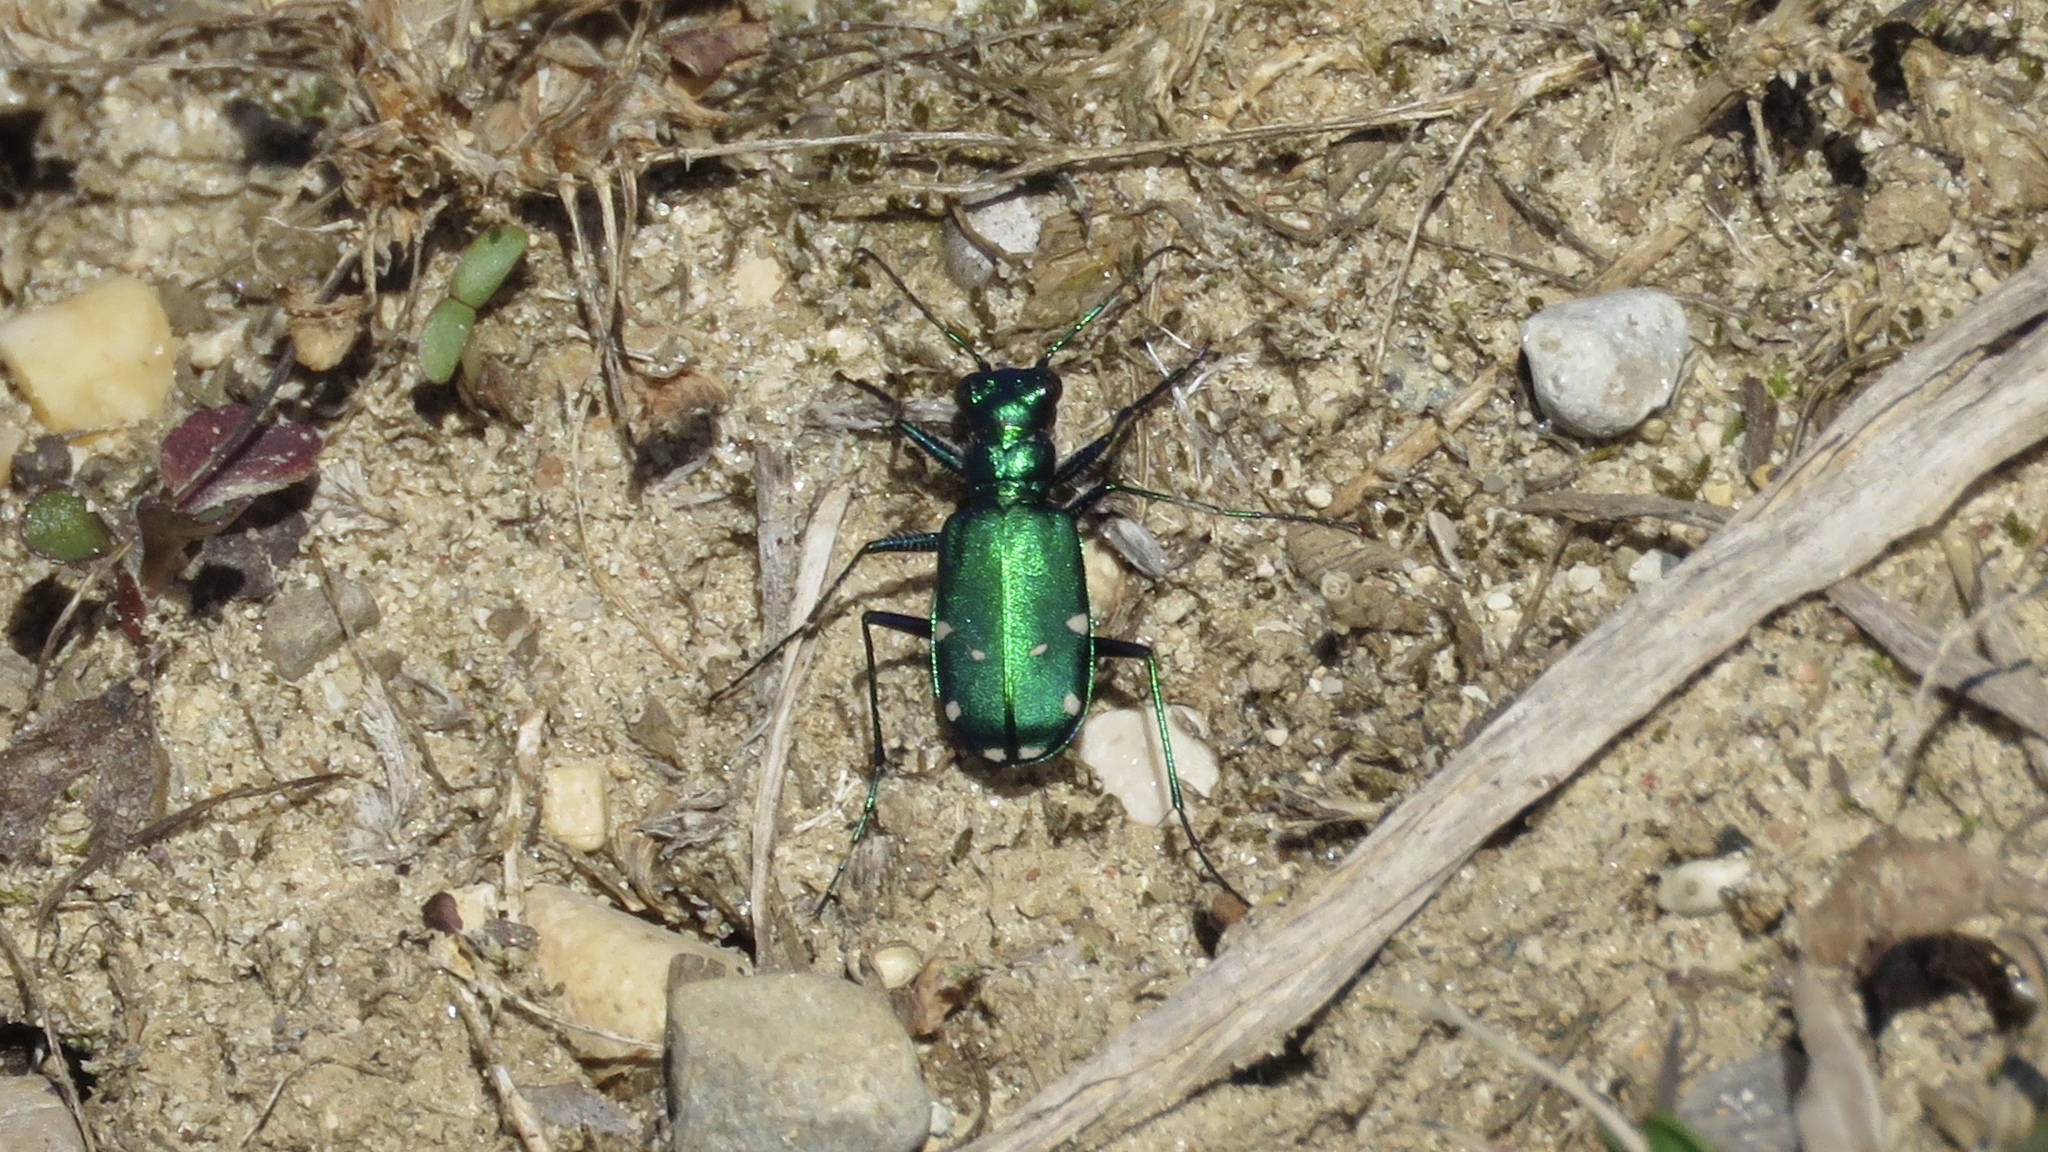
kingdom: Animalia
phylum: Arthropoda
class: Insecta
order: Coleoptera
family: Carabidae
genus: Cicindela
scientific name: Cicindela sexguttata
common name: Six-spotted tiger beetle
